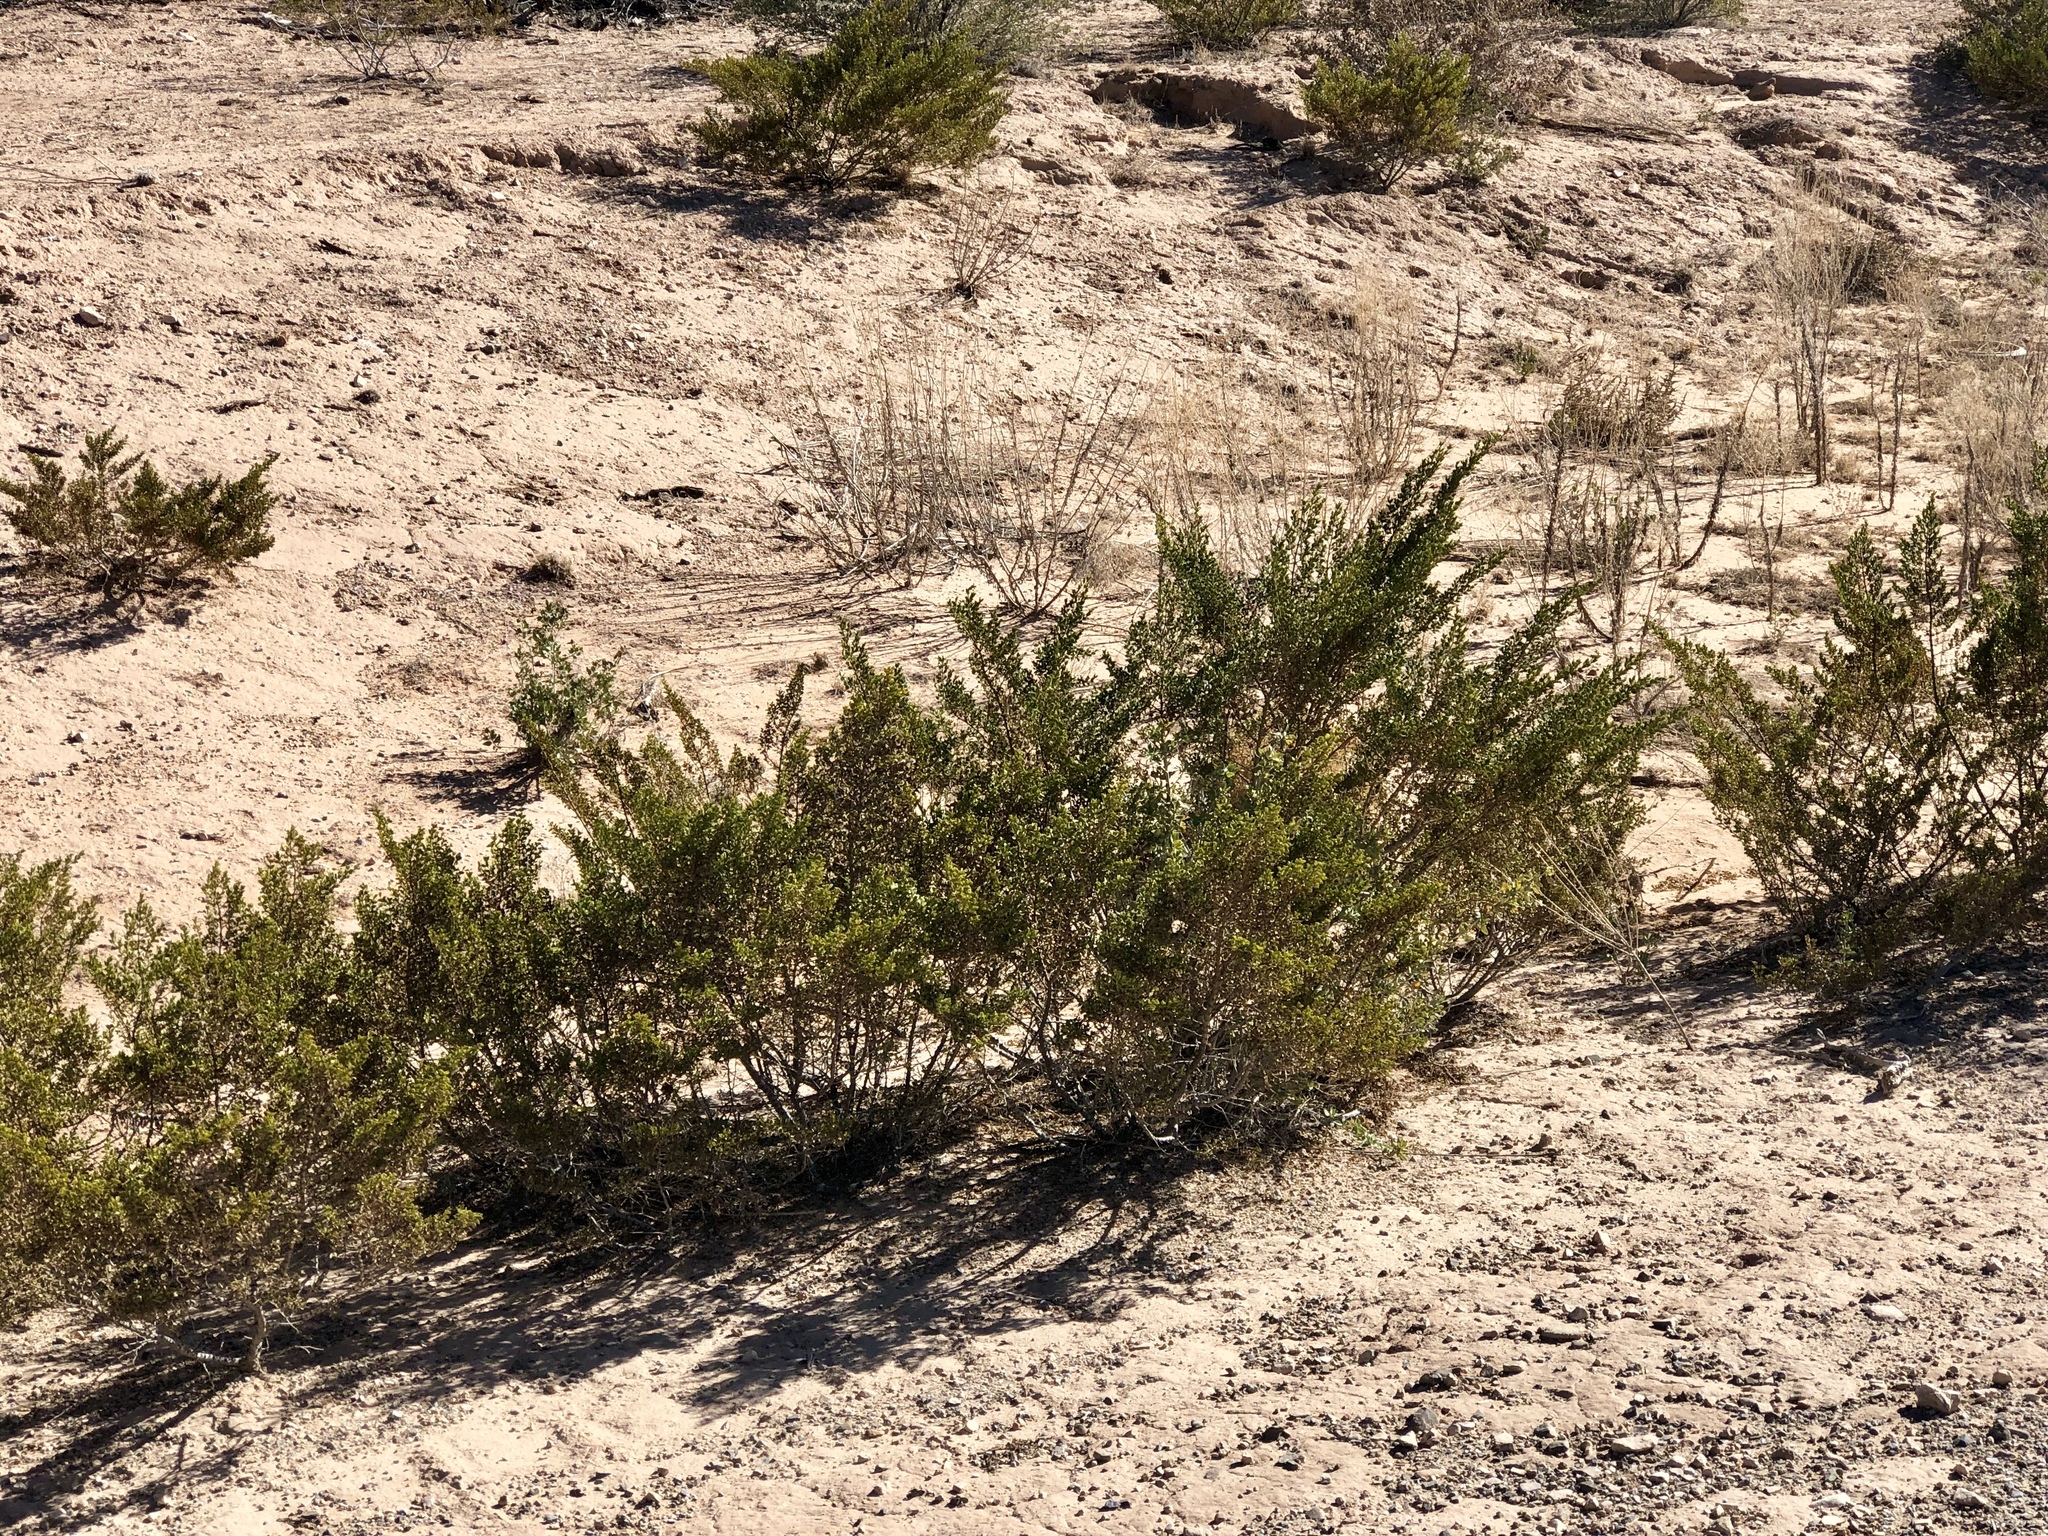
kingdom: Plantae
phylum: Tracheophyta
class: Magnoliopsida
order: Zygophyllales
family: Zygophyllaceae
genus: Larrea
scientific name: Larrea tridentata
